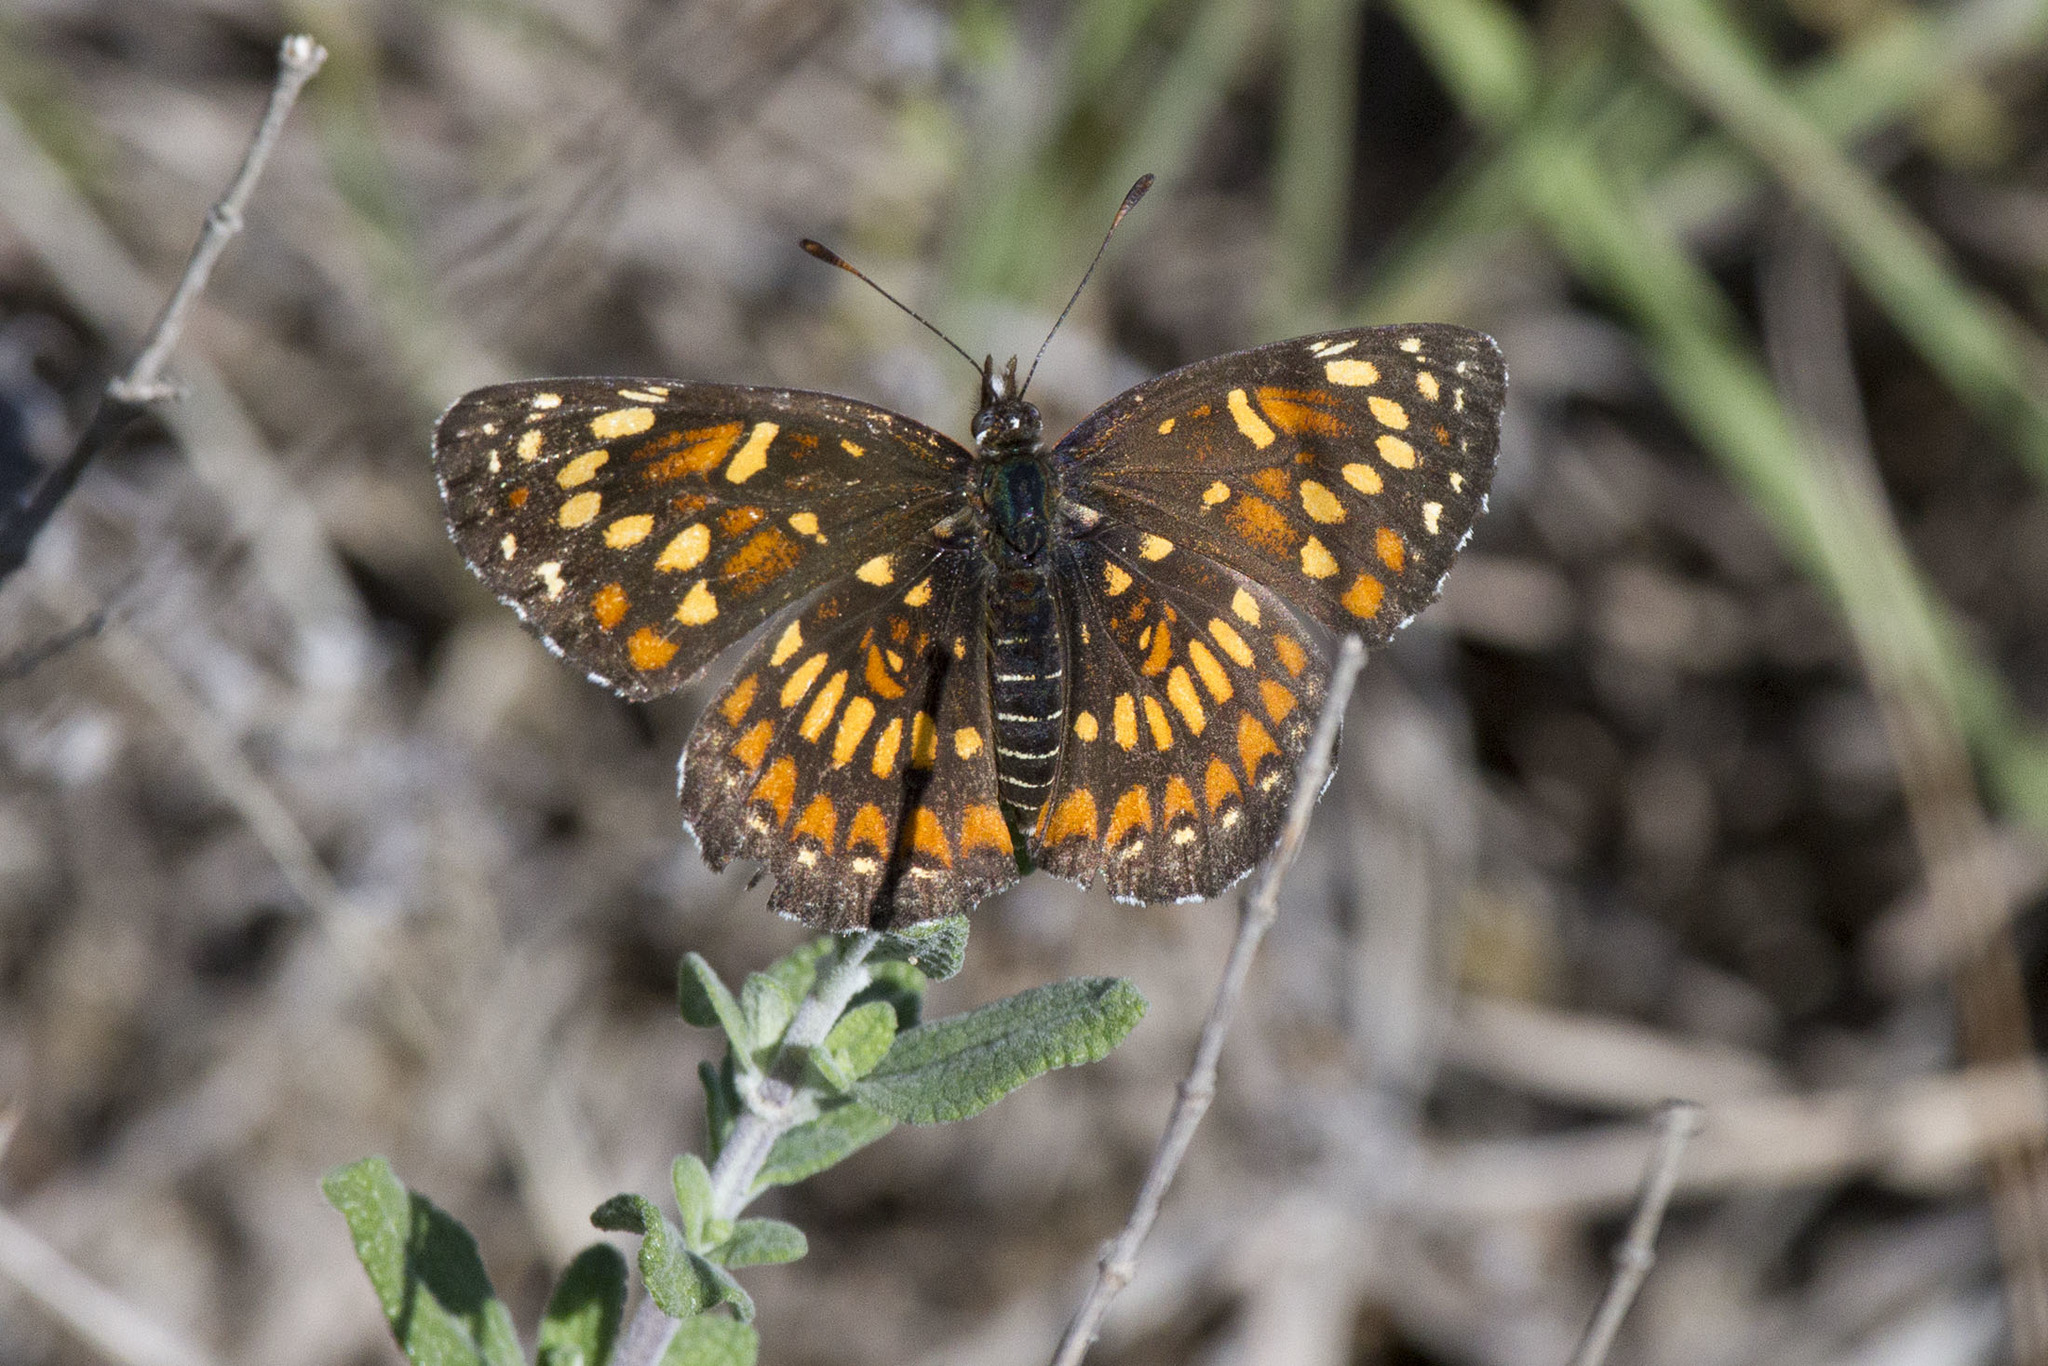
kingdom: Animalia
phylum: Arthropoda
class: Insecta
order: Lepidoptera
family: Nymphalidae
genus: Thessalia
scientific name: Thessalia theona
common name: Nymphalid moth
